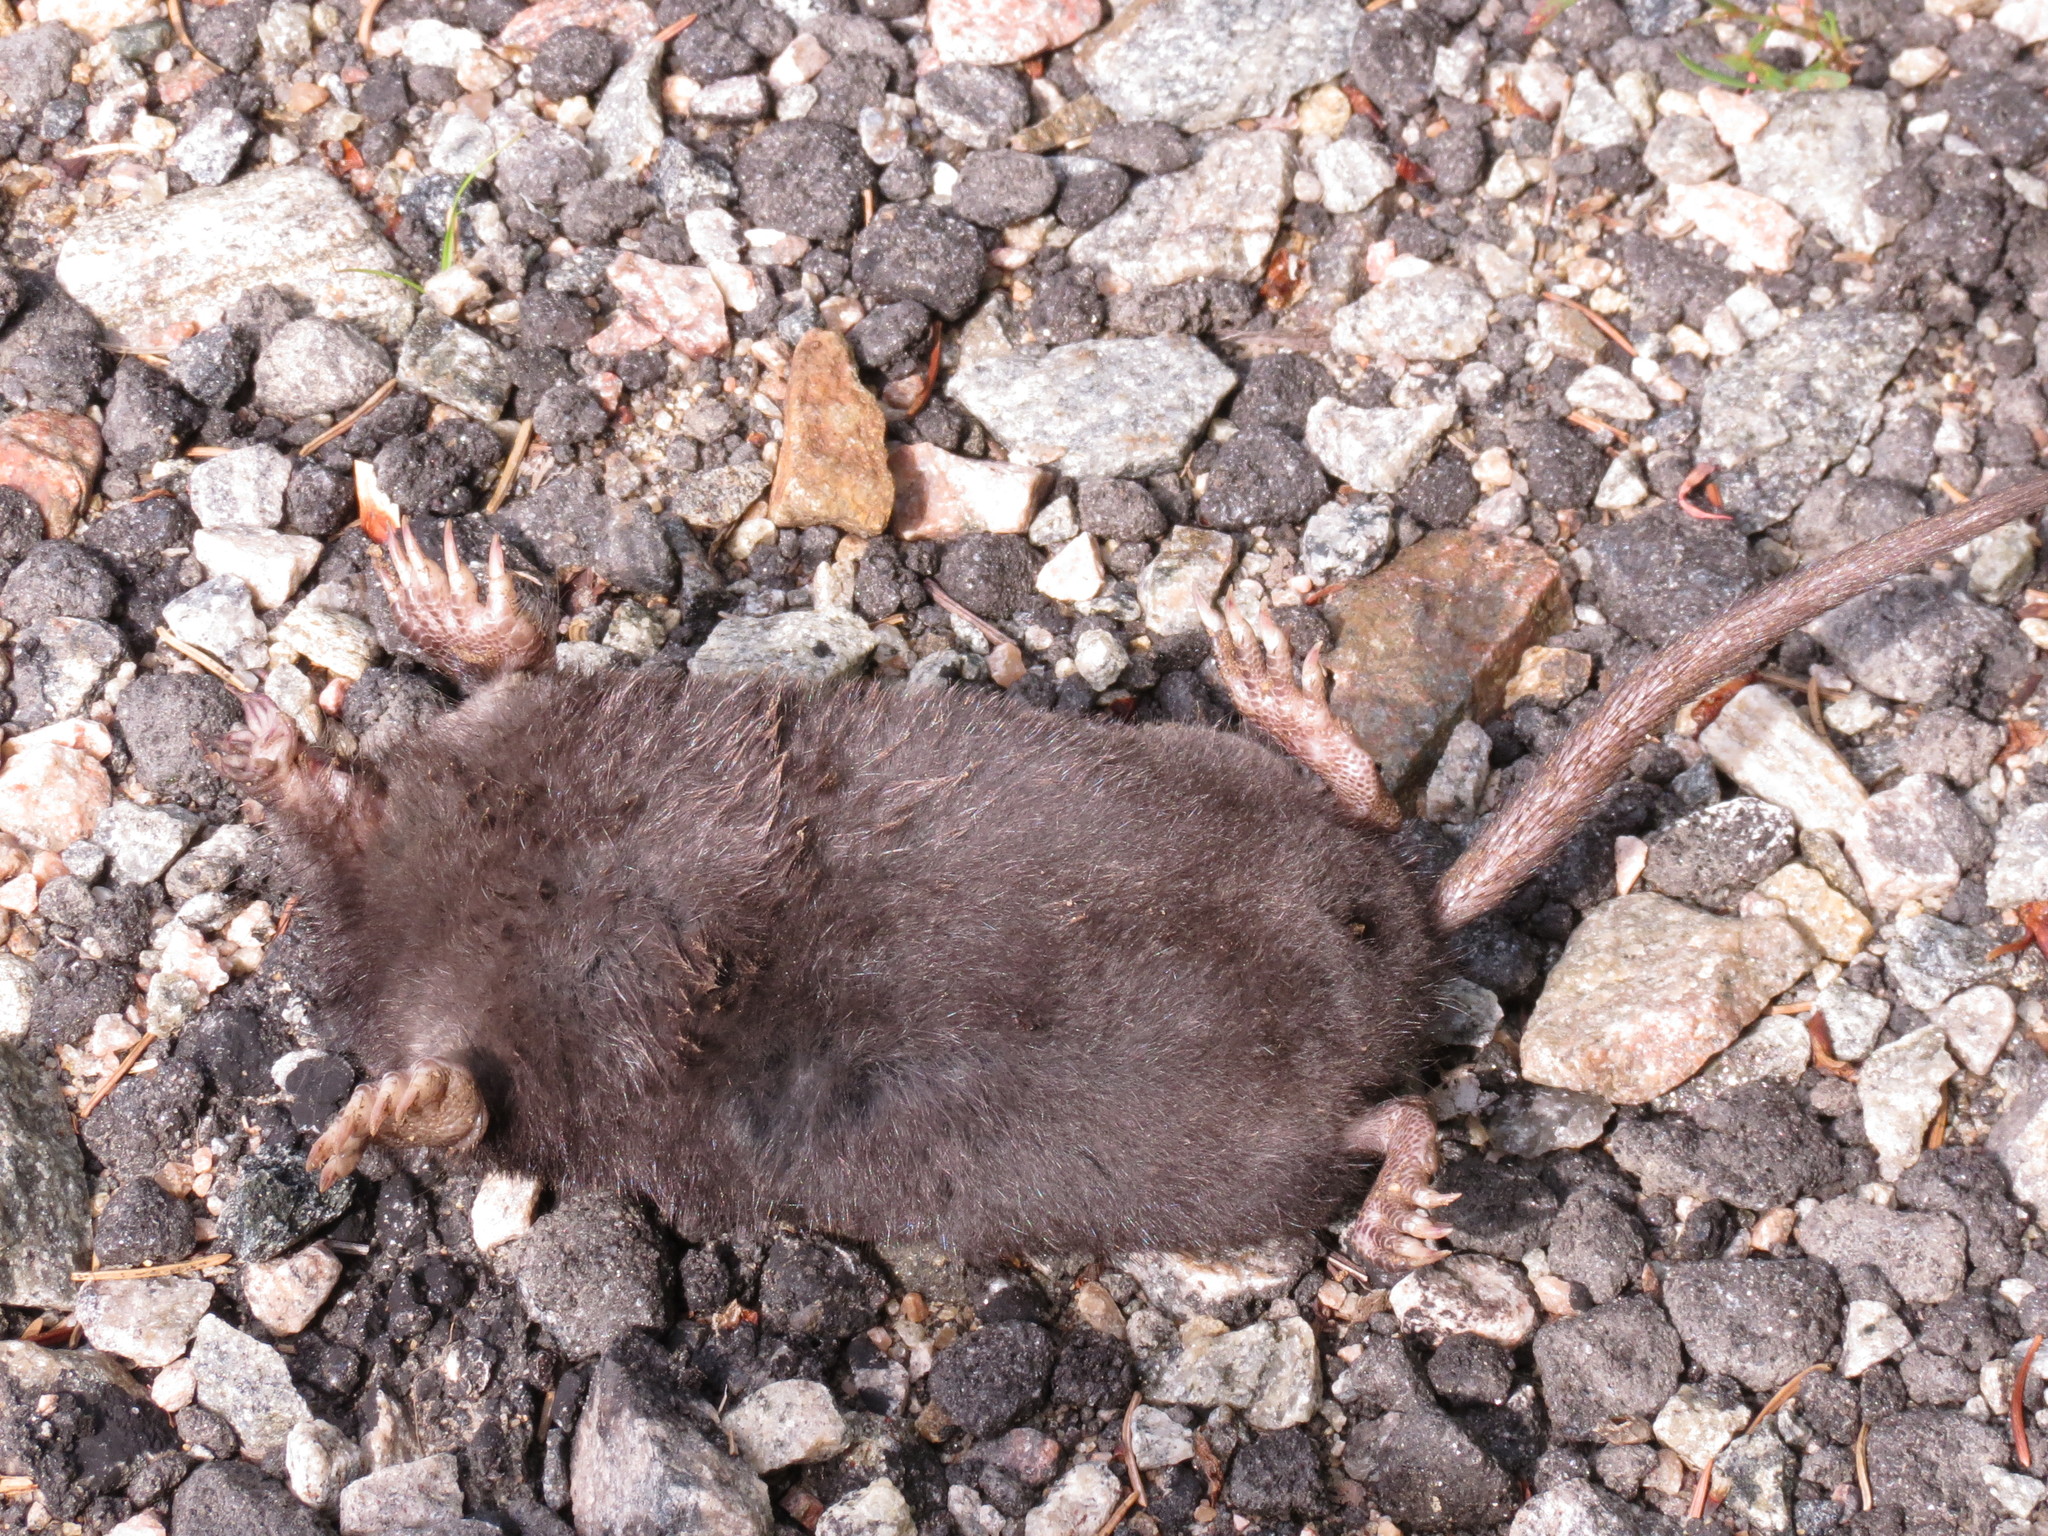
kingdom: Animalia
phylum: Chordata
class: Mammalia
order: Soricomorpha
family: Talpidae
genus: Condylura
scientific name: Condylura cristata
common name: Star-nosed mole
